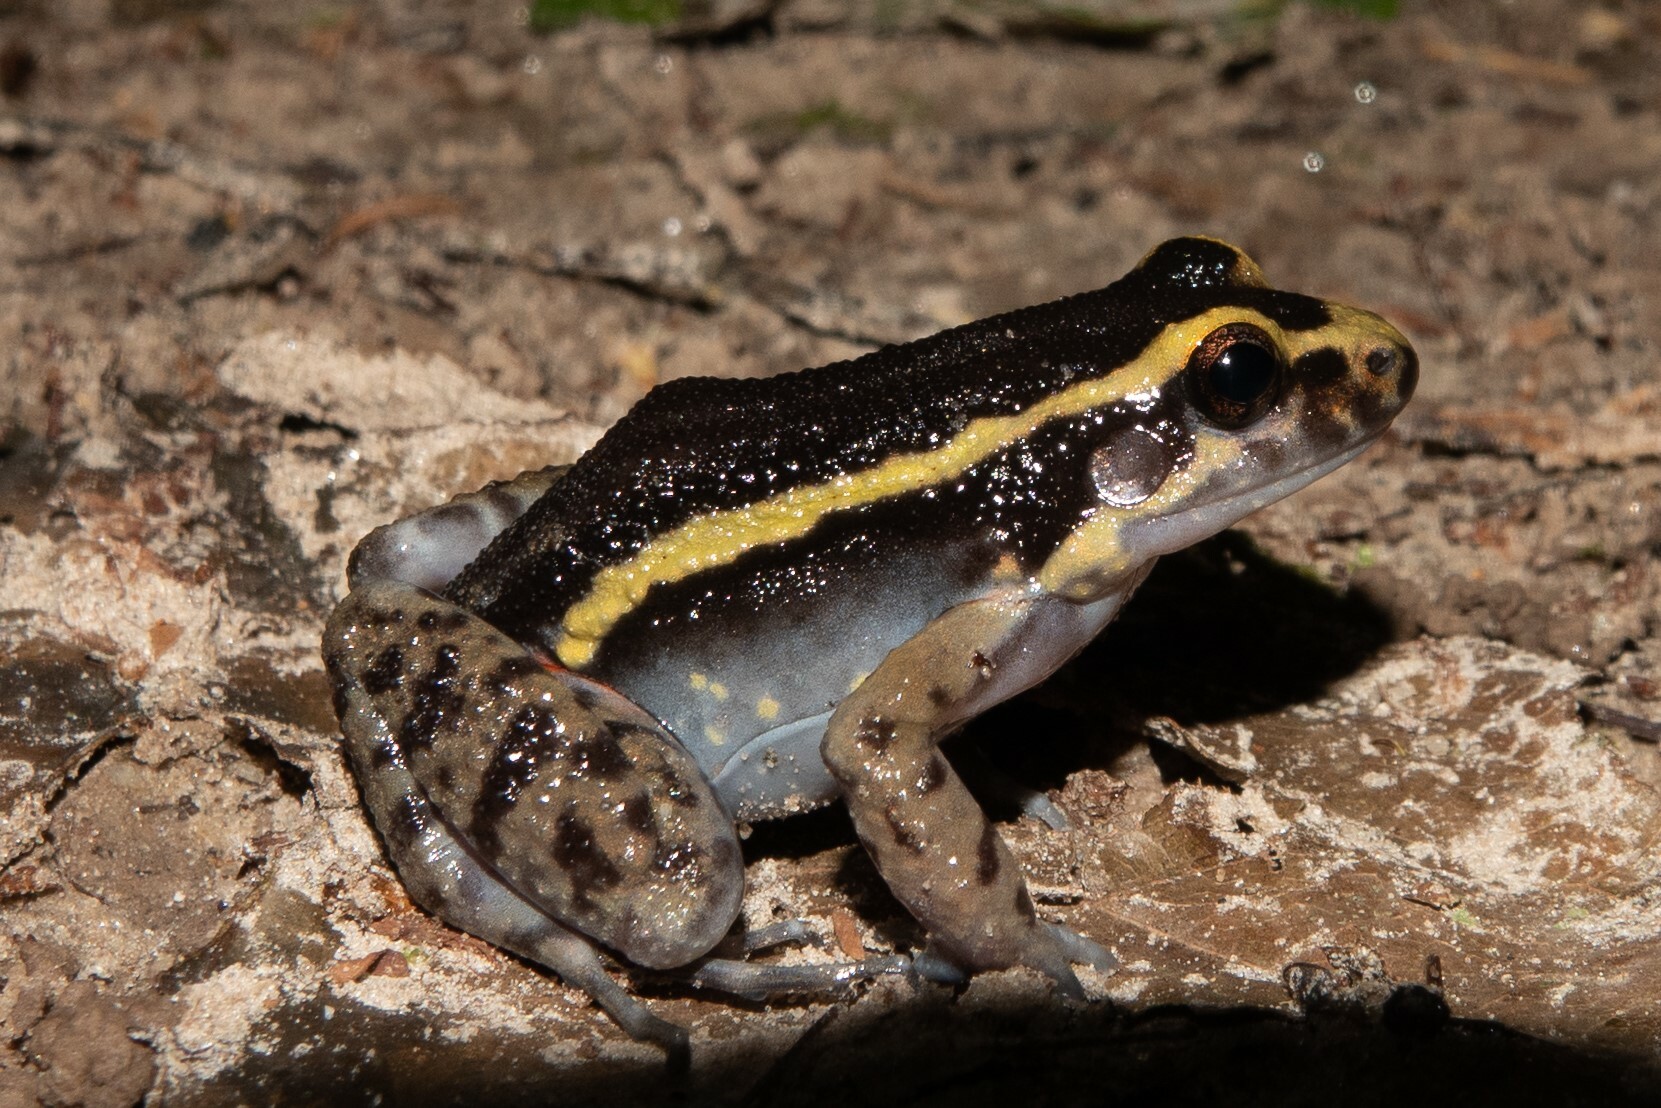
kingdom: Animalia
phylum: Chordata
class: Amphibia
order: Anura
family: Leptodactylidae
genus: Lithodytes
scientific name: Lithodytes lineatus
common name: Gold-striped frog
